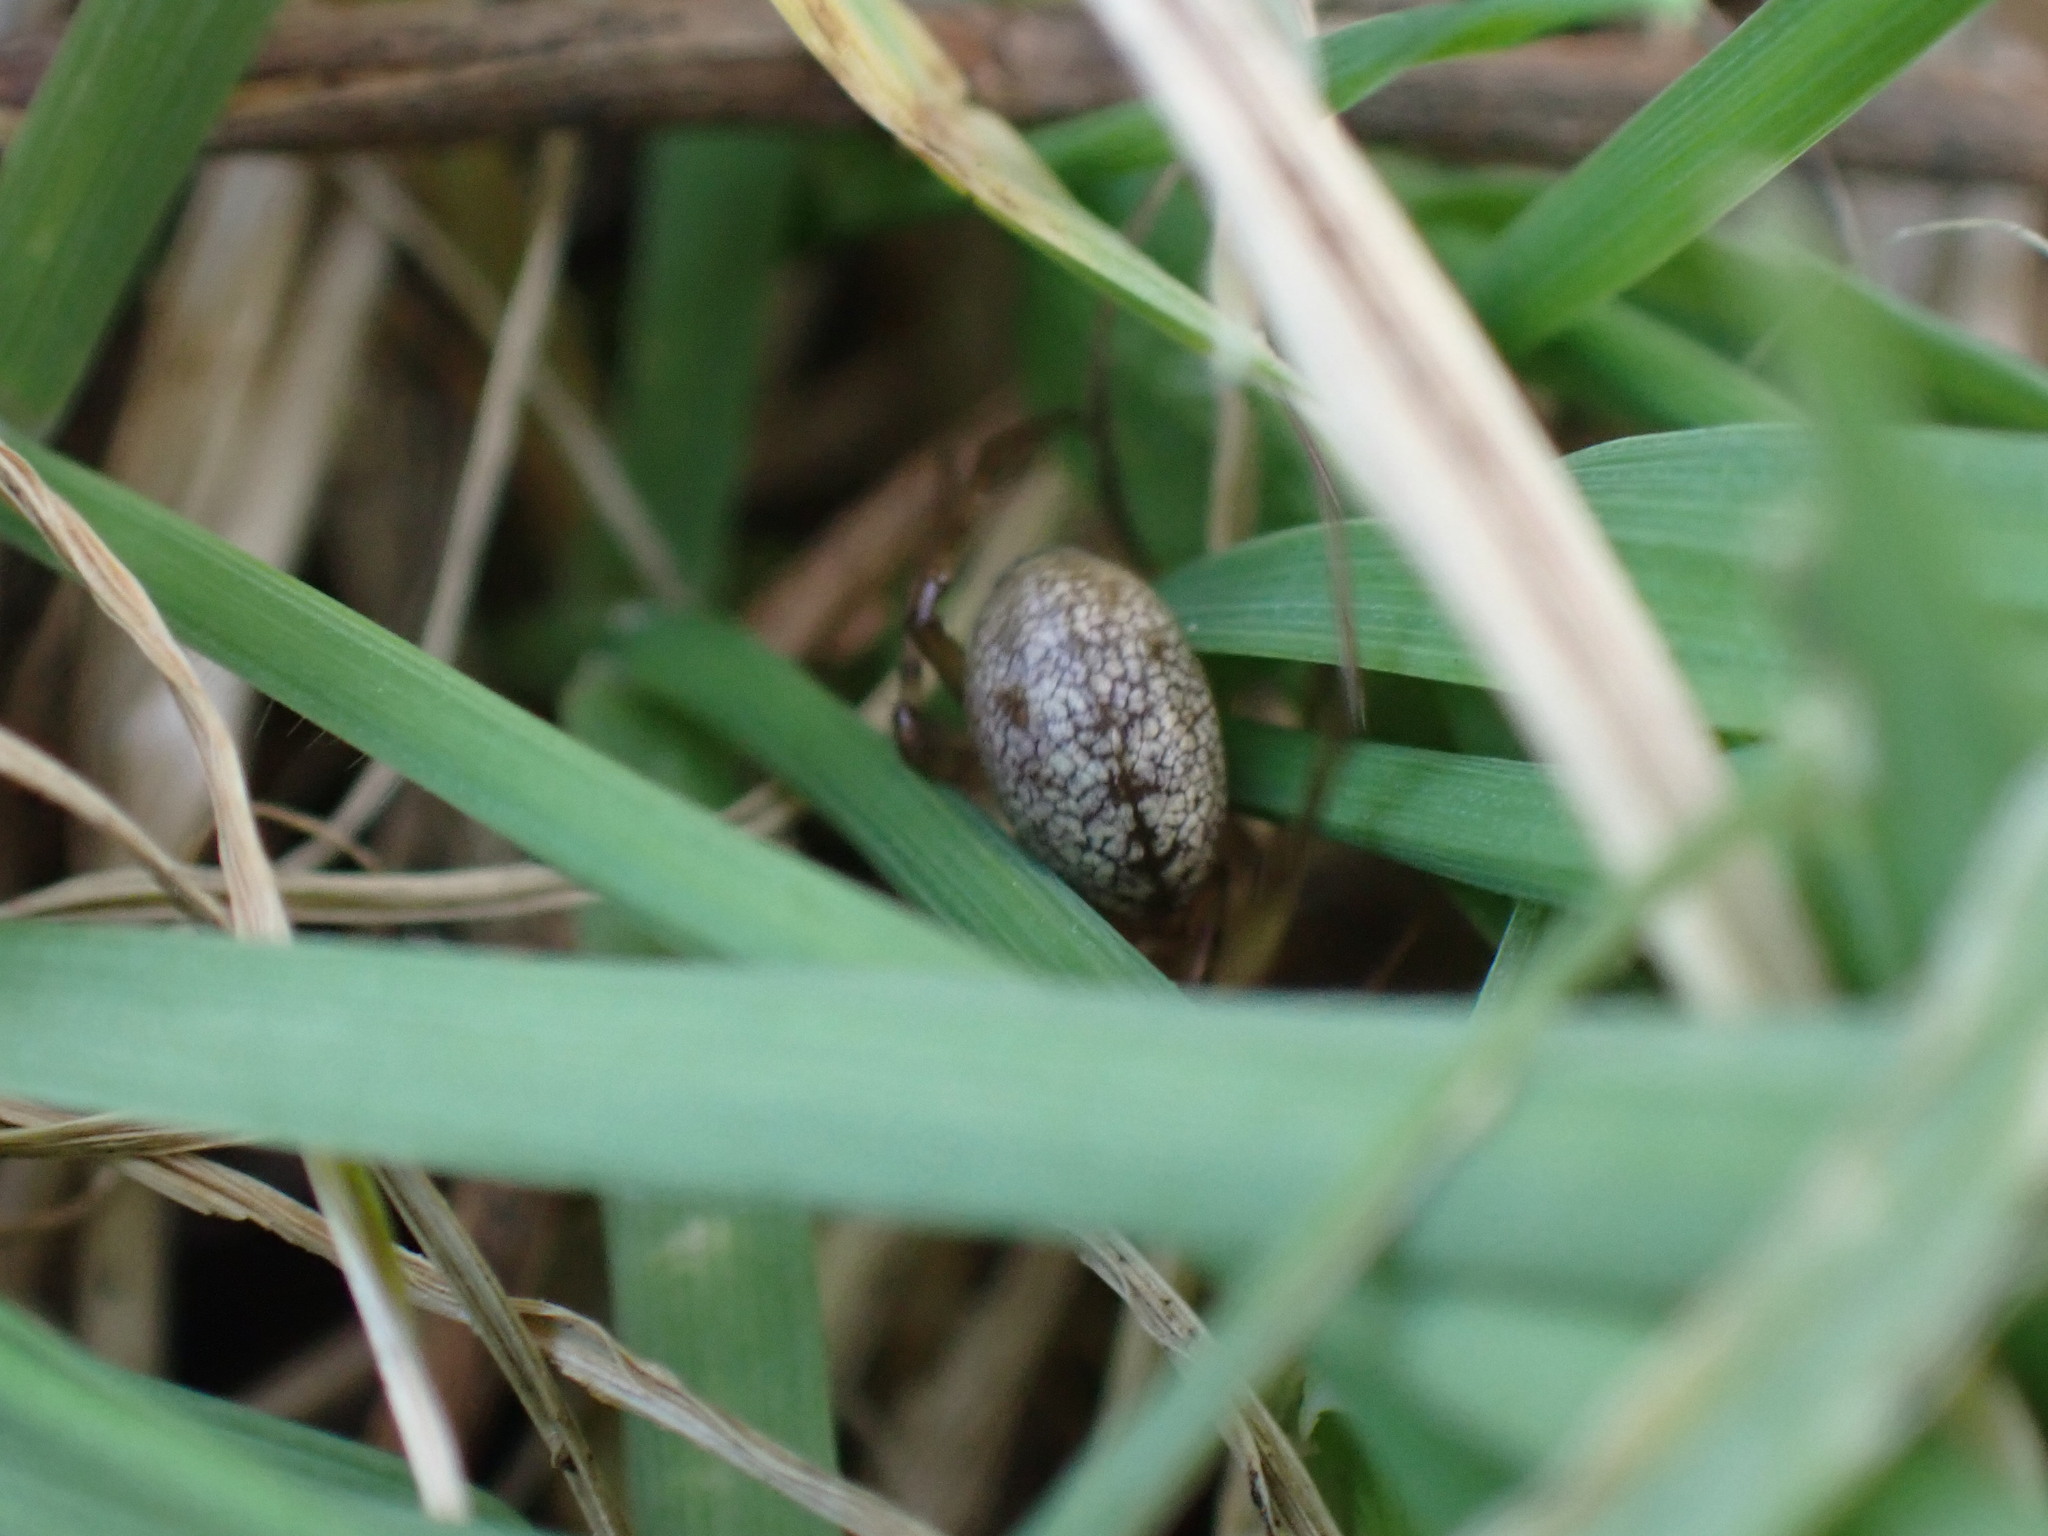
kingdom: Animalia
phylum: Arthropoda
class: Arachnida
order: Araneae
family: Linyphiidae
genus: Stemonyphantes
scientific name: Stemonyphantes lineatus
